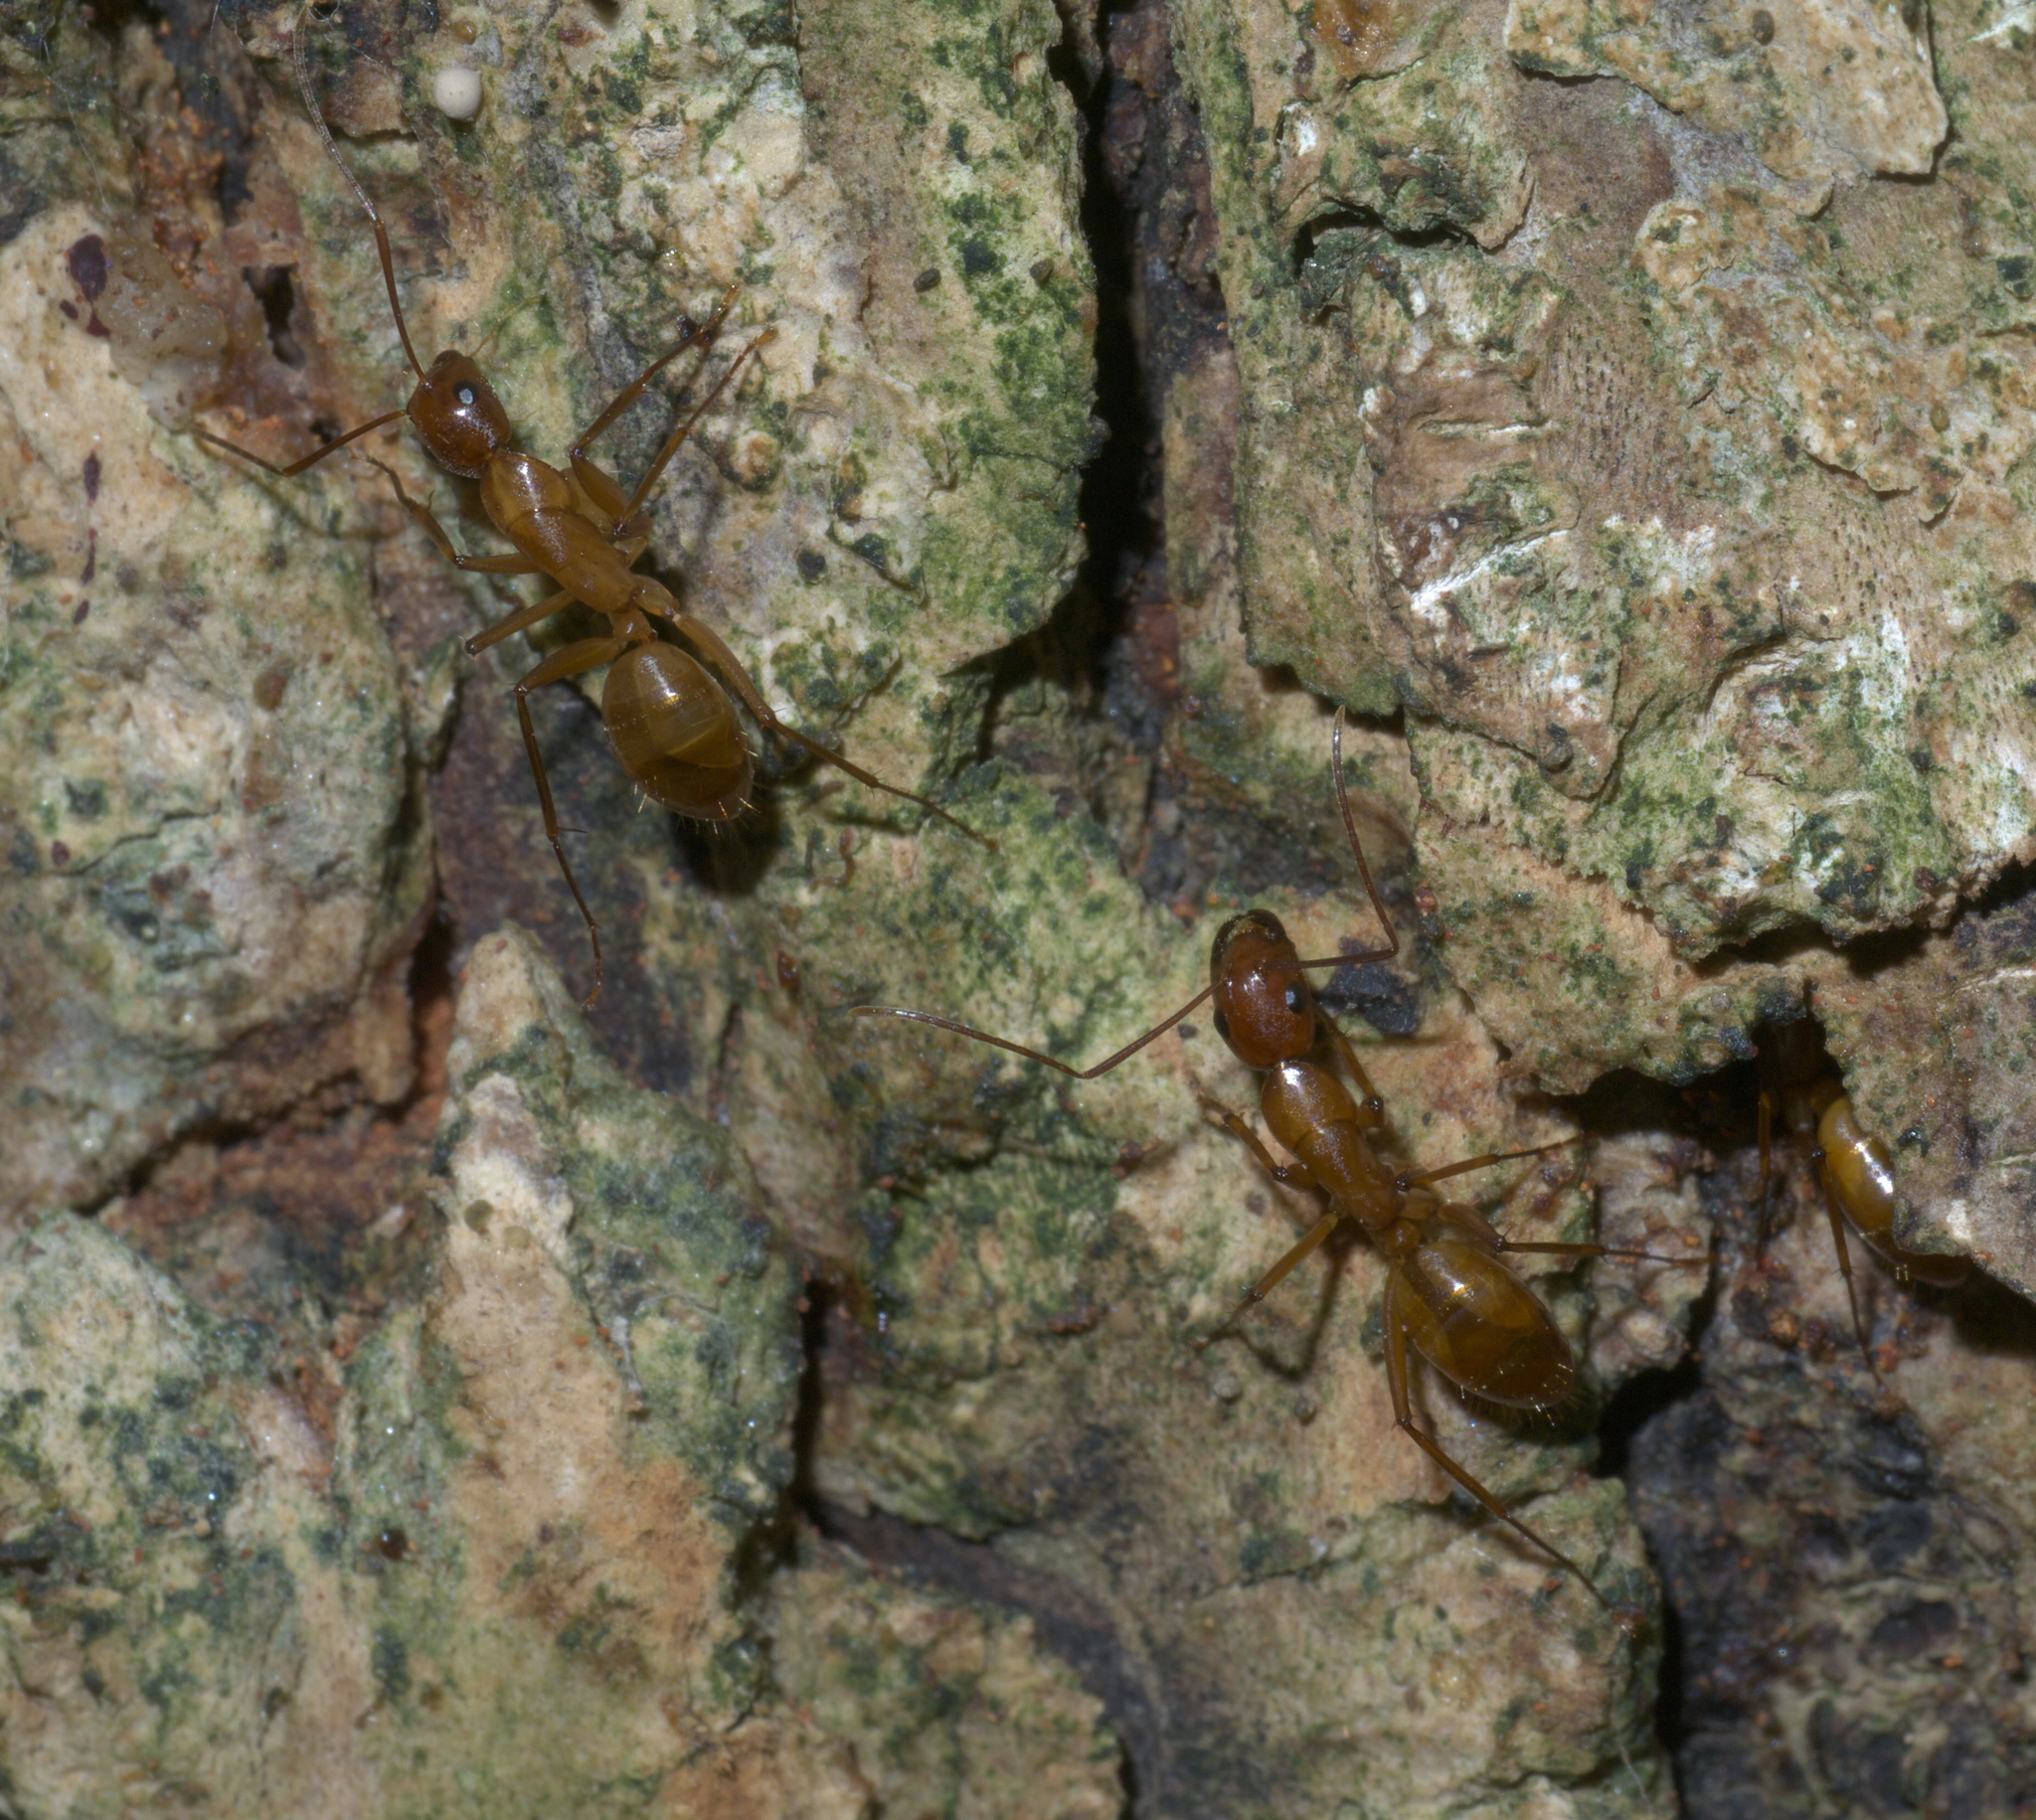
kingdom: Animalia
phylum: Arthropoda
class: Insecta
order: Hymenoptera
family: Formicidae
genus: Camponotus
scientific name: Camponotus castaneus
